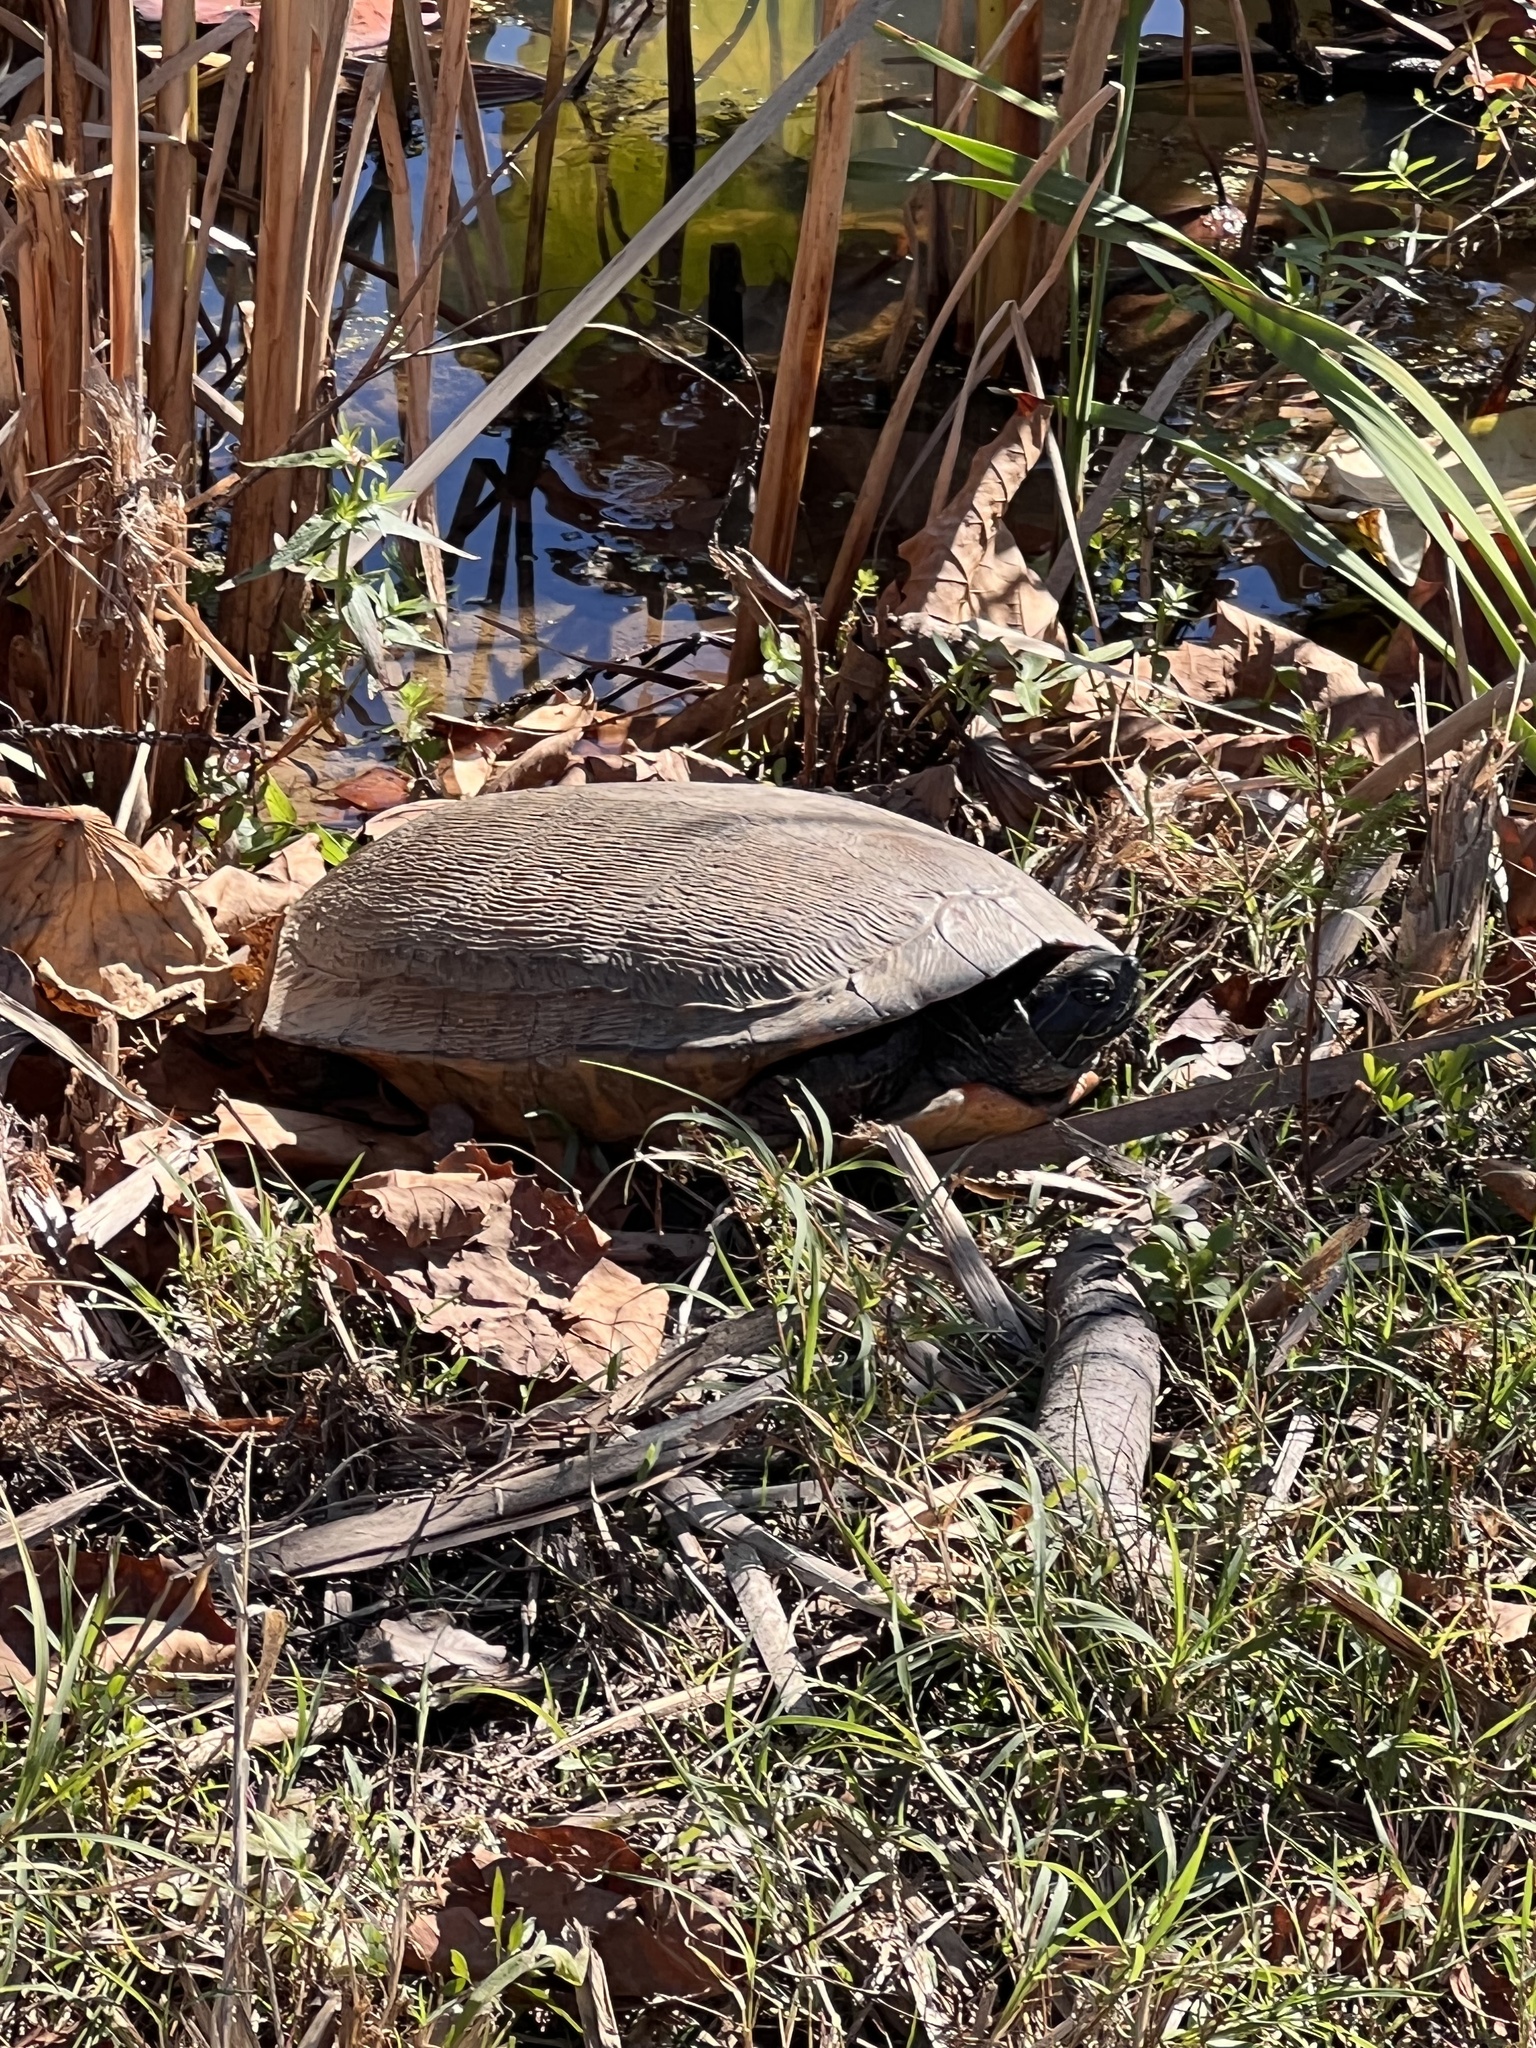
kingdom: Animalia
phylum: Chordata
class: Testudines
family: Emydidae
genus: Pseudemys
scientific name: Pseudemys rubriventris
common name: American red-bellied turtle
